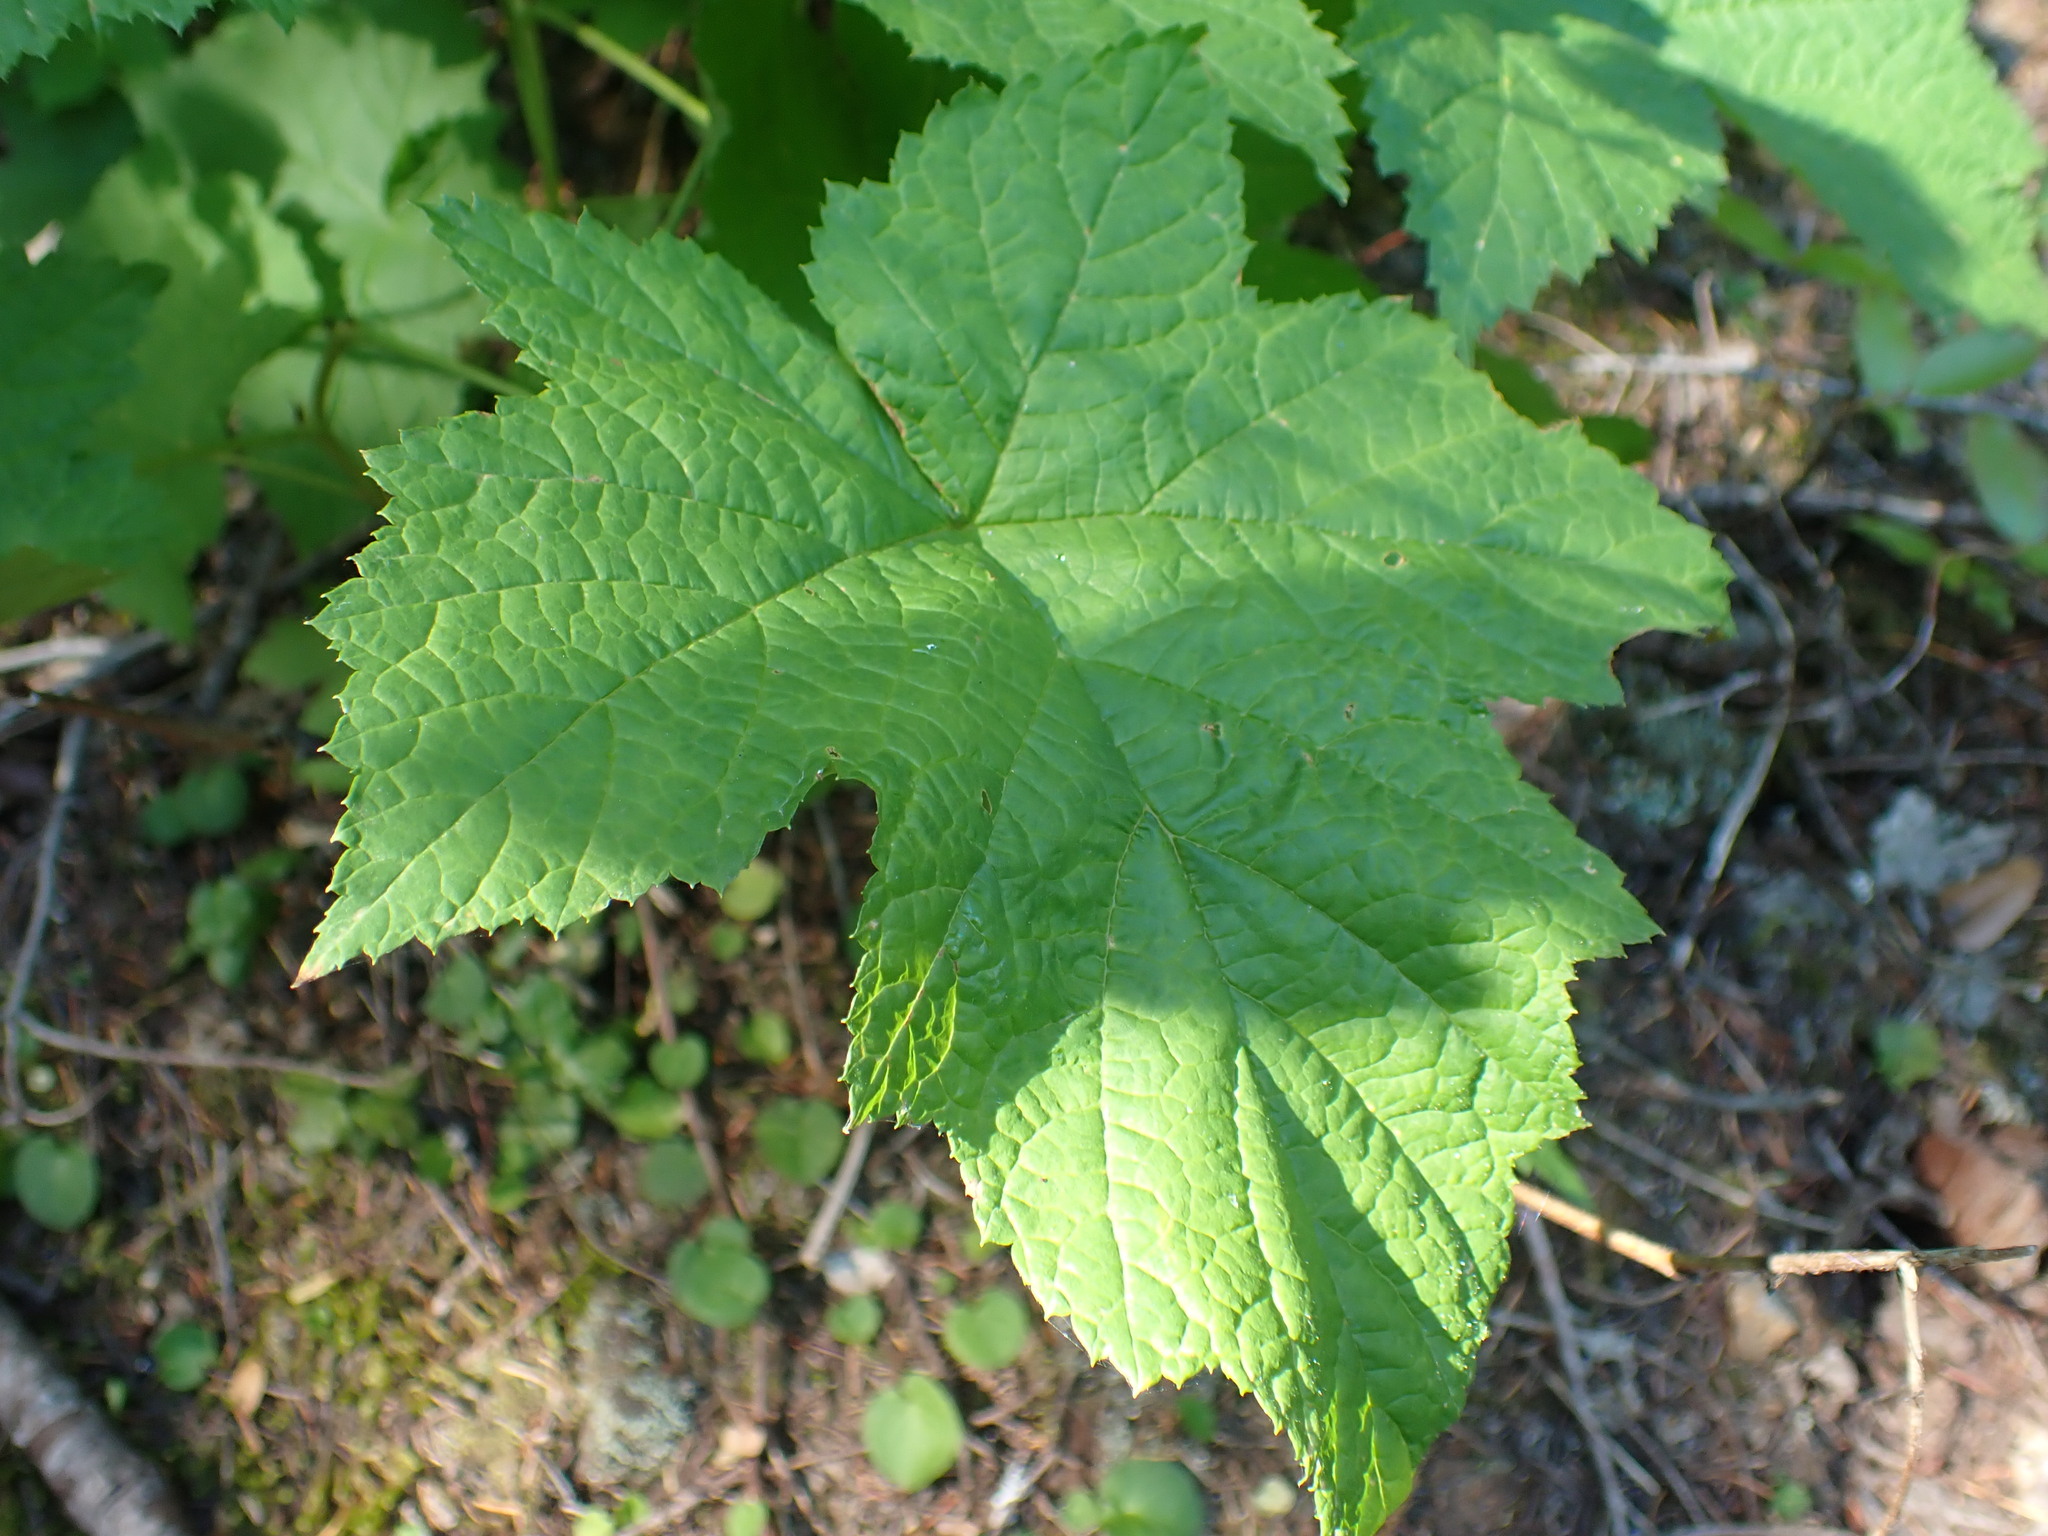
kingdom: Plantae
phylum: Tracheophyta
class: Magnoliopsida
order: Rosales
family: Rosaceae
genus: Rubus
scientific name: Rubus parviflorus
